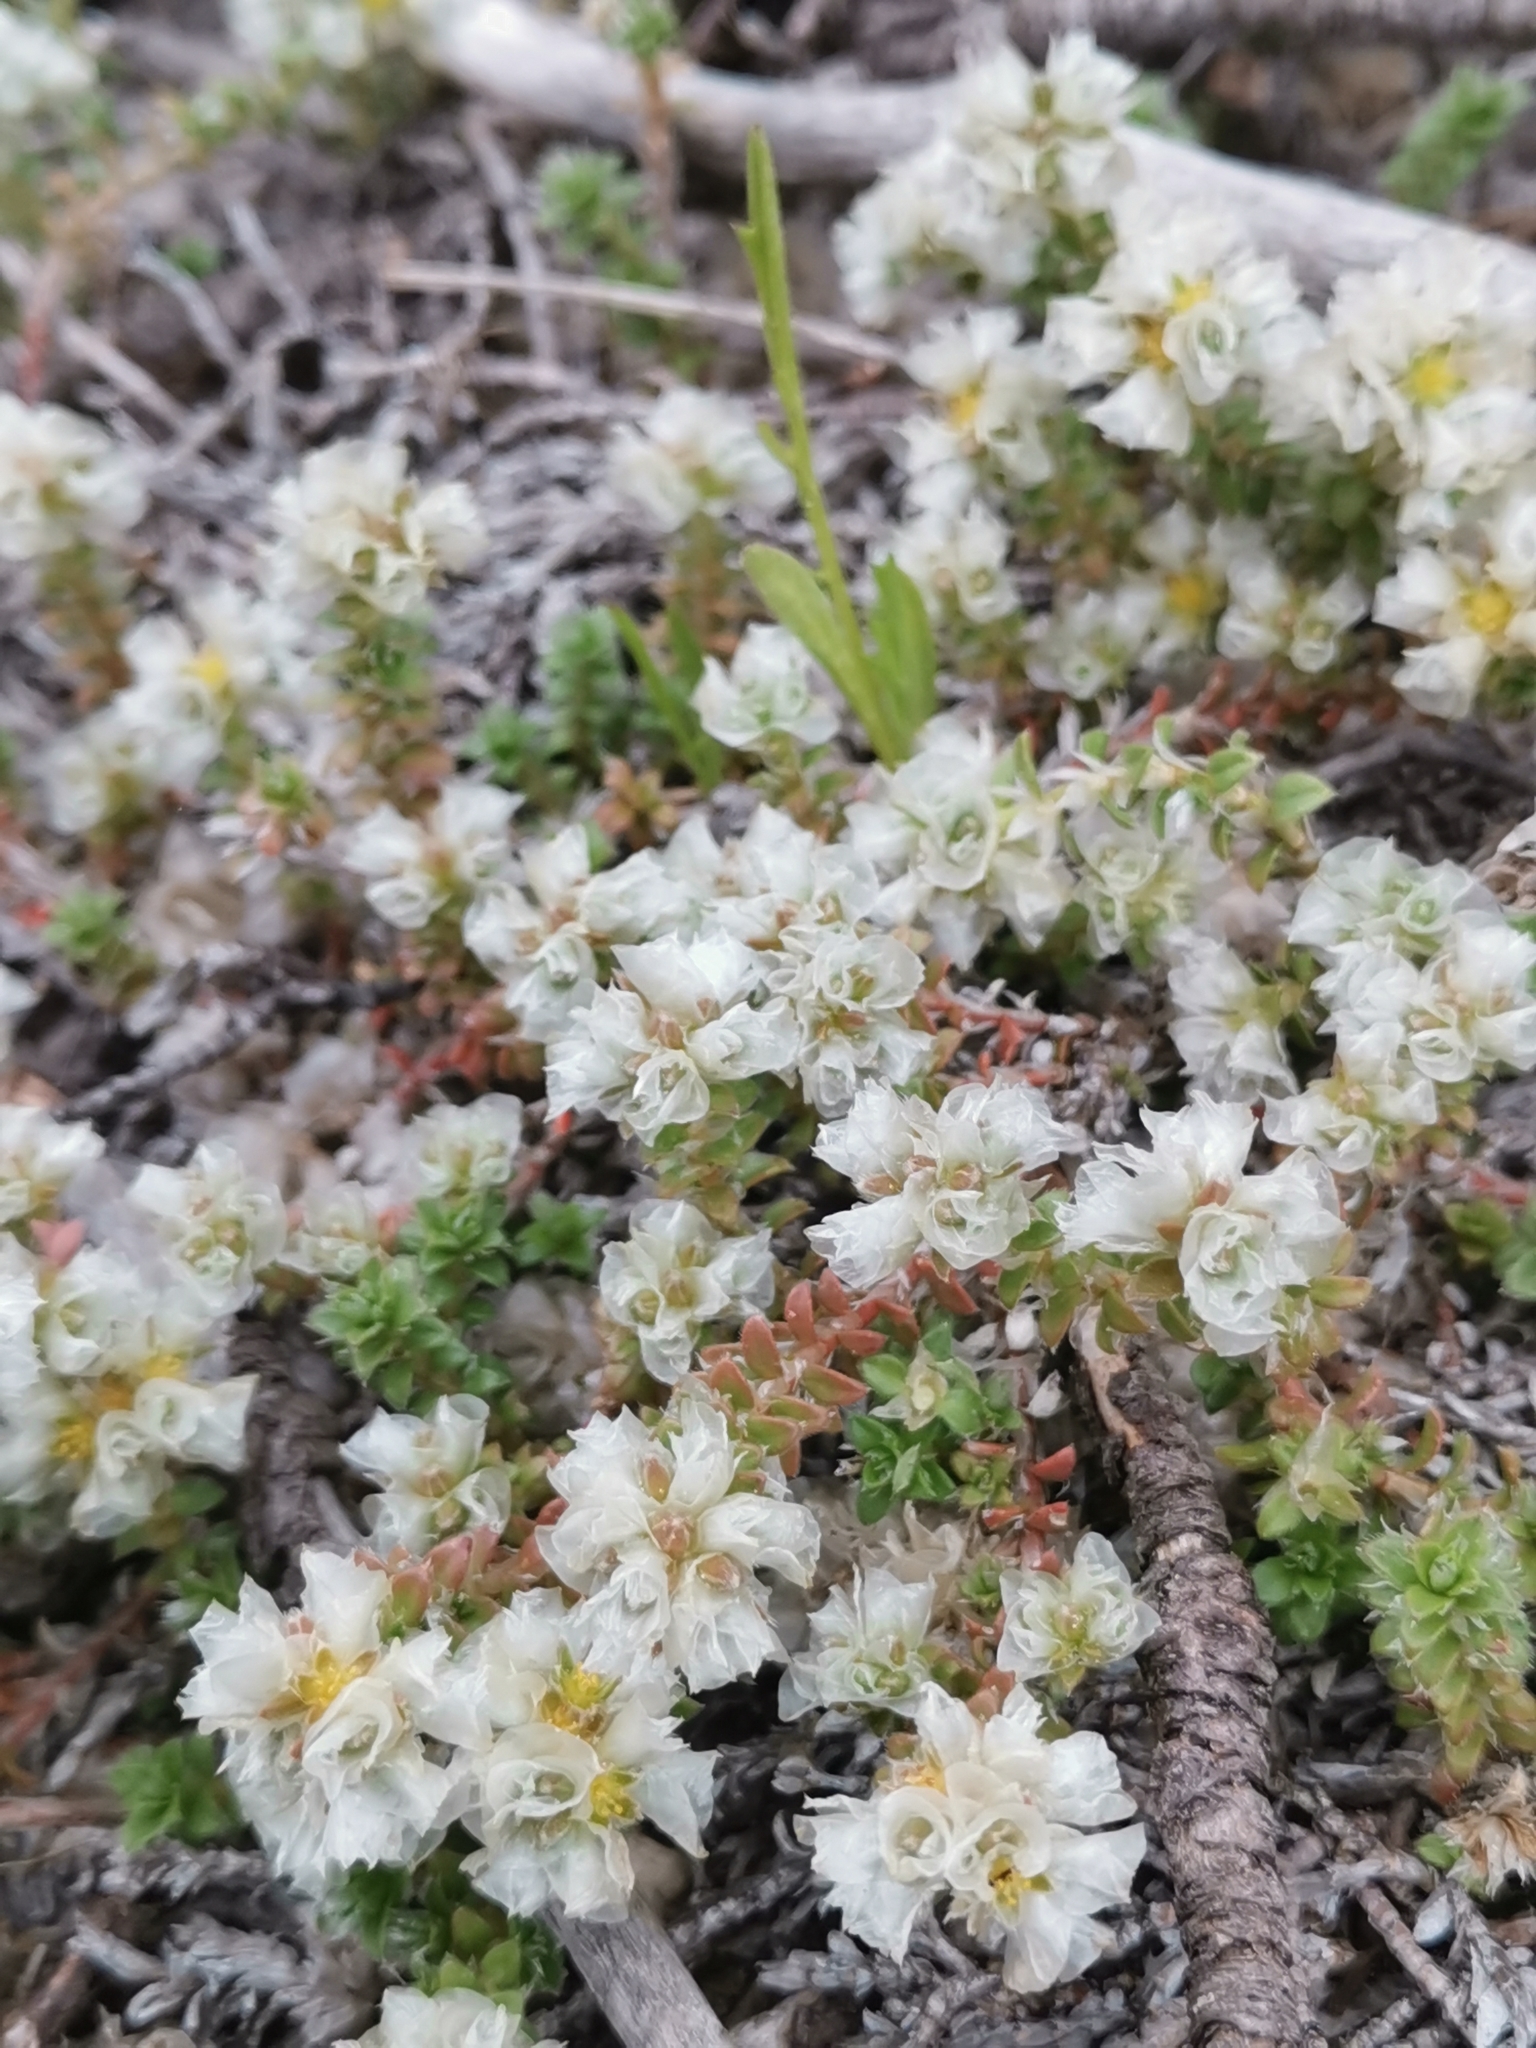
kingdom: Plantae
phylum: Tracheophyta
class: Magnoliopsida
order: Caryophyllales
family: Caryophyllaceae
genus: Paronychia
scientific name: Paronychia kapela
